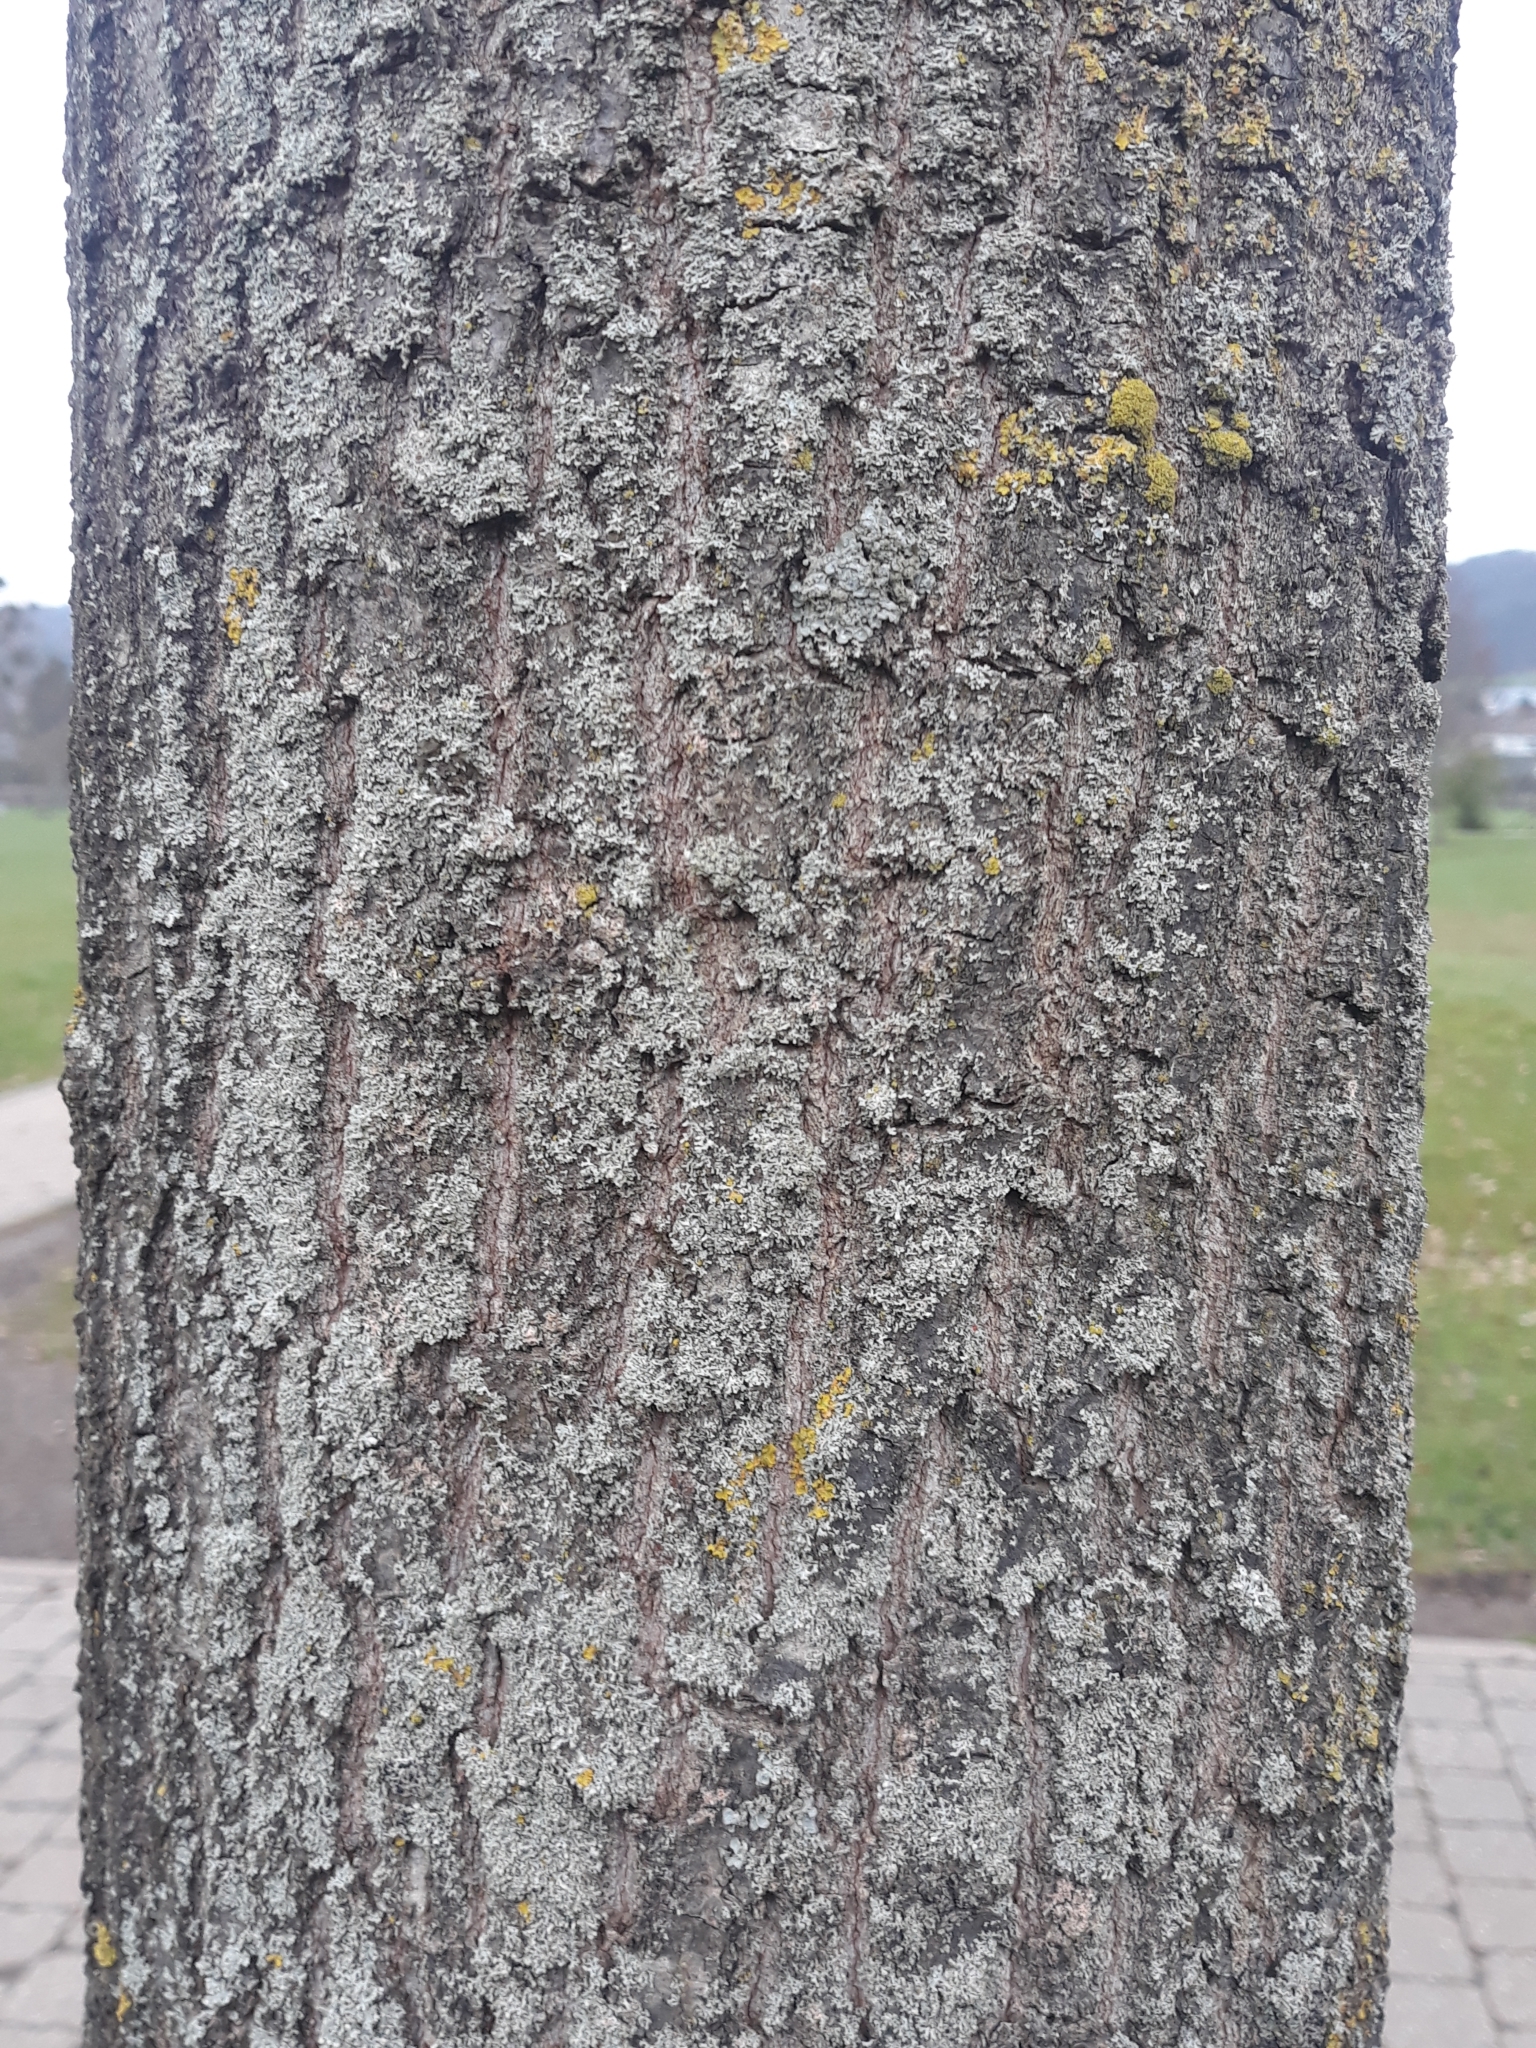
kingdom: Plantae
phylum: Tracheophyta
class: Magnoliopsida
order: Fagales
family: Fagaceae
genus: Quercus
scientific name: Quercus palustris
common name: Pin oak
